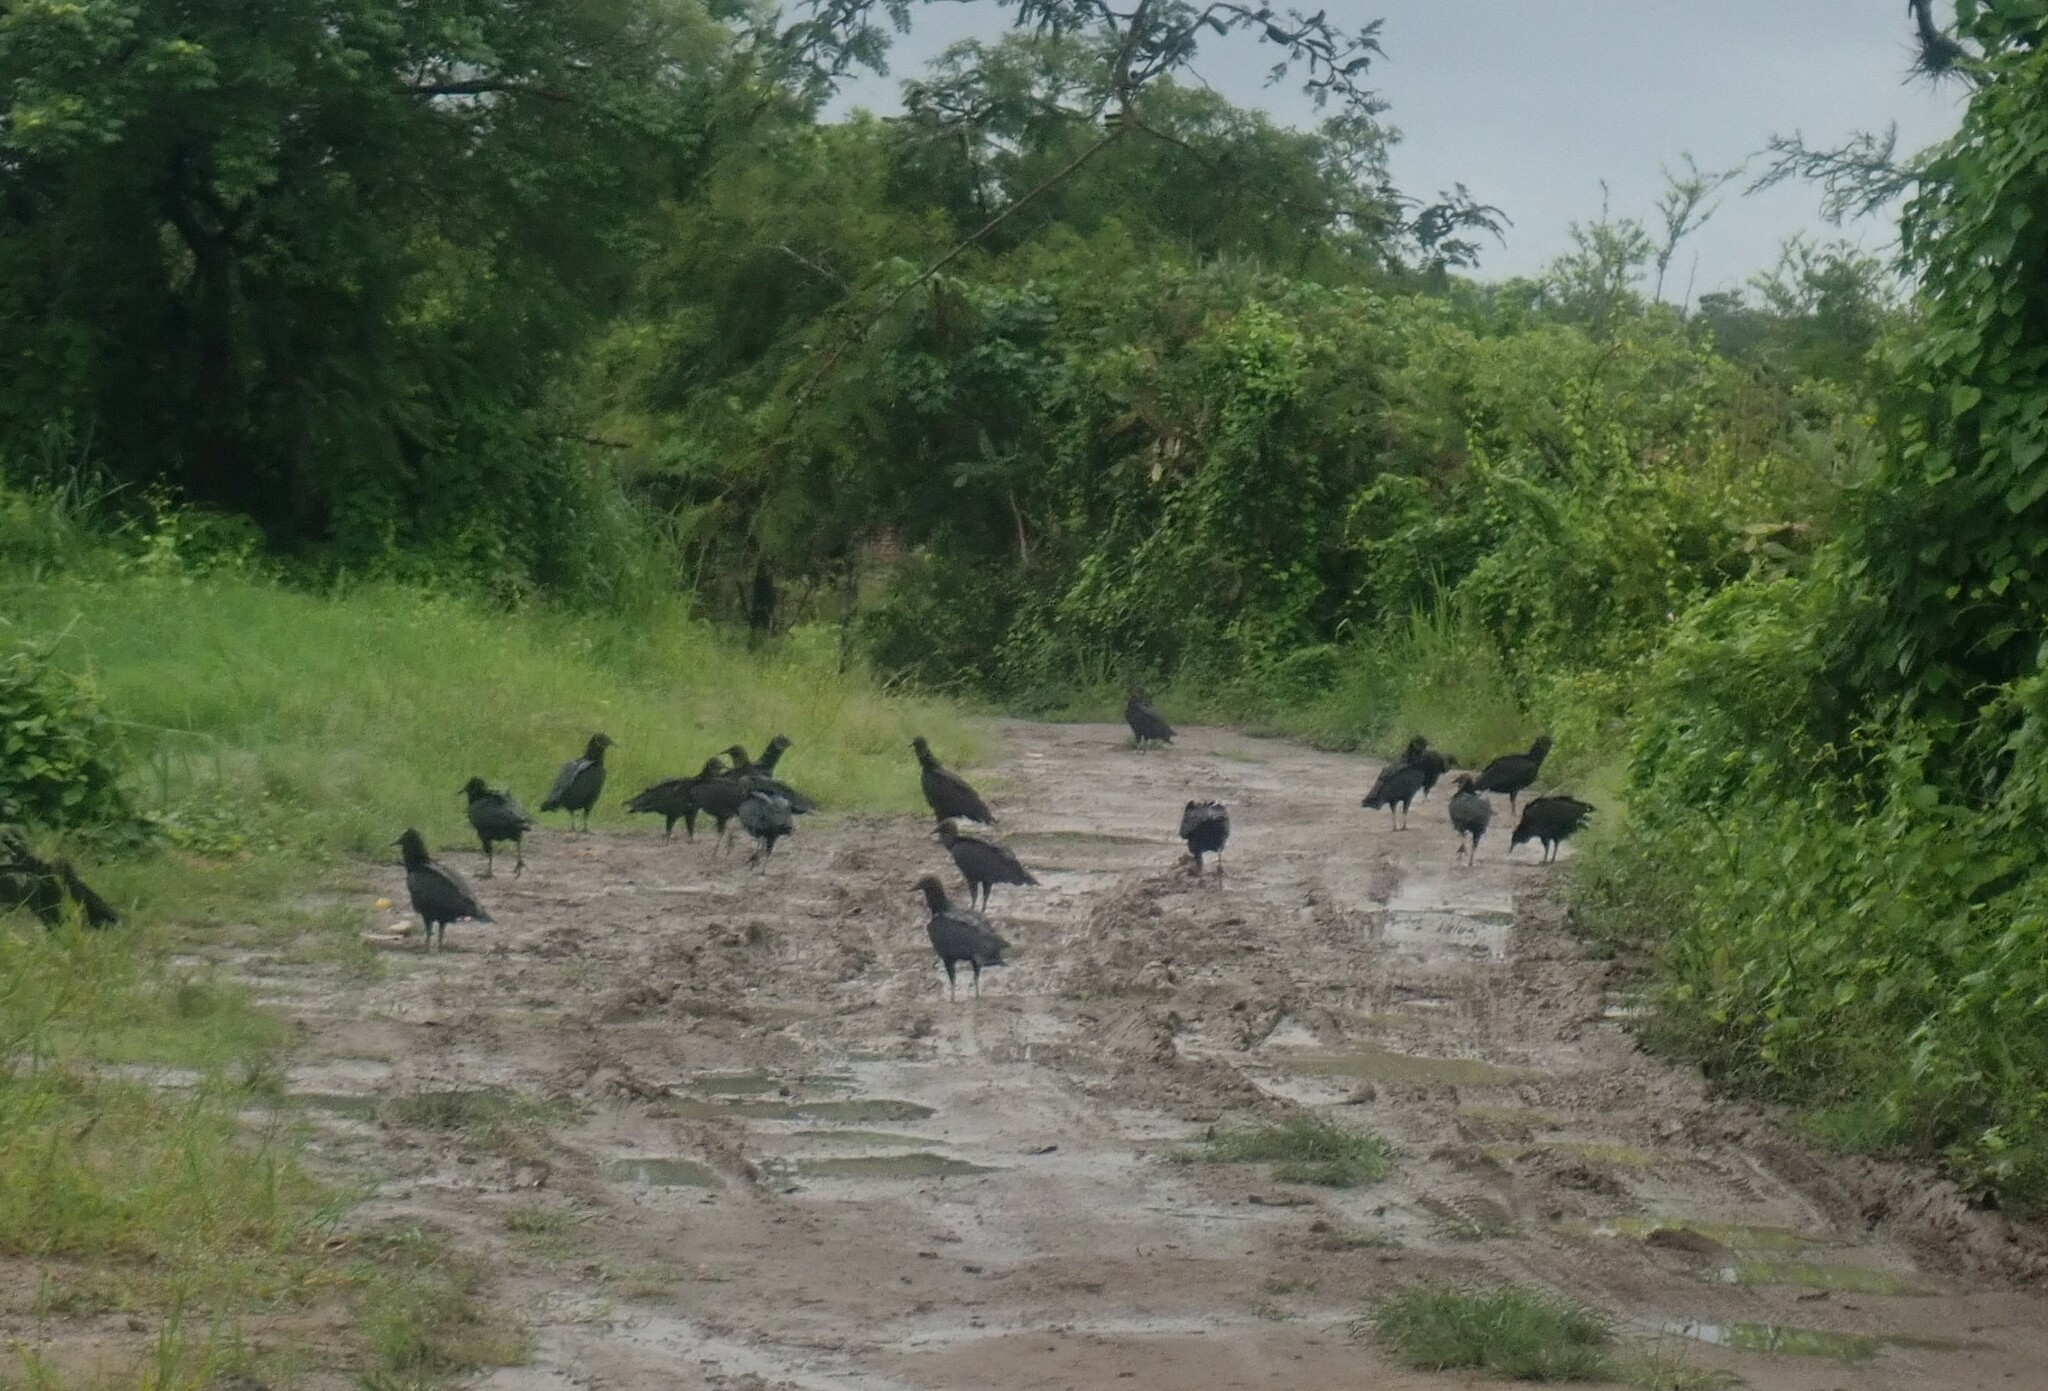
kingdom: Animalia
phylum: Chordata
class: Aves
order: Accipitriformes
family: Cathartidae
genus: Coragyps
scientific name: Coragyps atratus
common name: Black vulture
